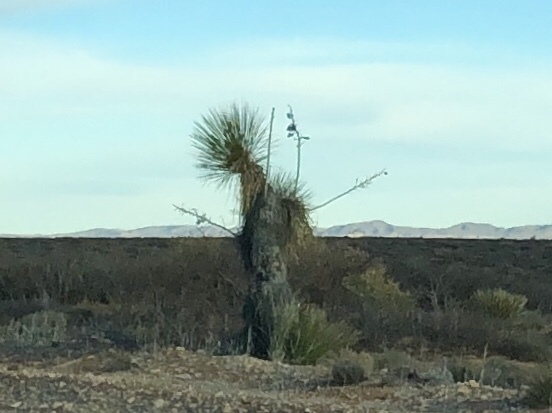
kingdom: Plantae
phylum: Tracheophyta
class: Liliopsida
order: Asparagales
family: Asparagaceae
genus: Yucca
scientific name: Yucca elata
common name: Palmella
